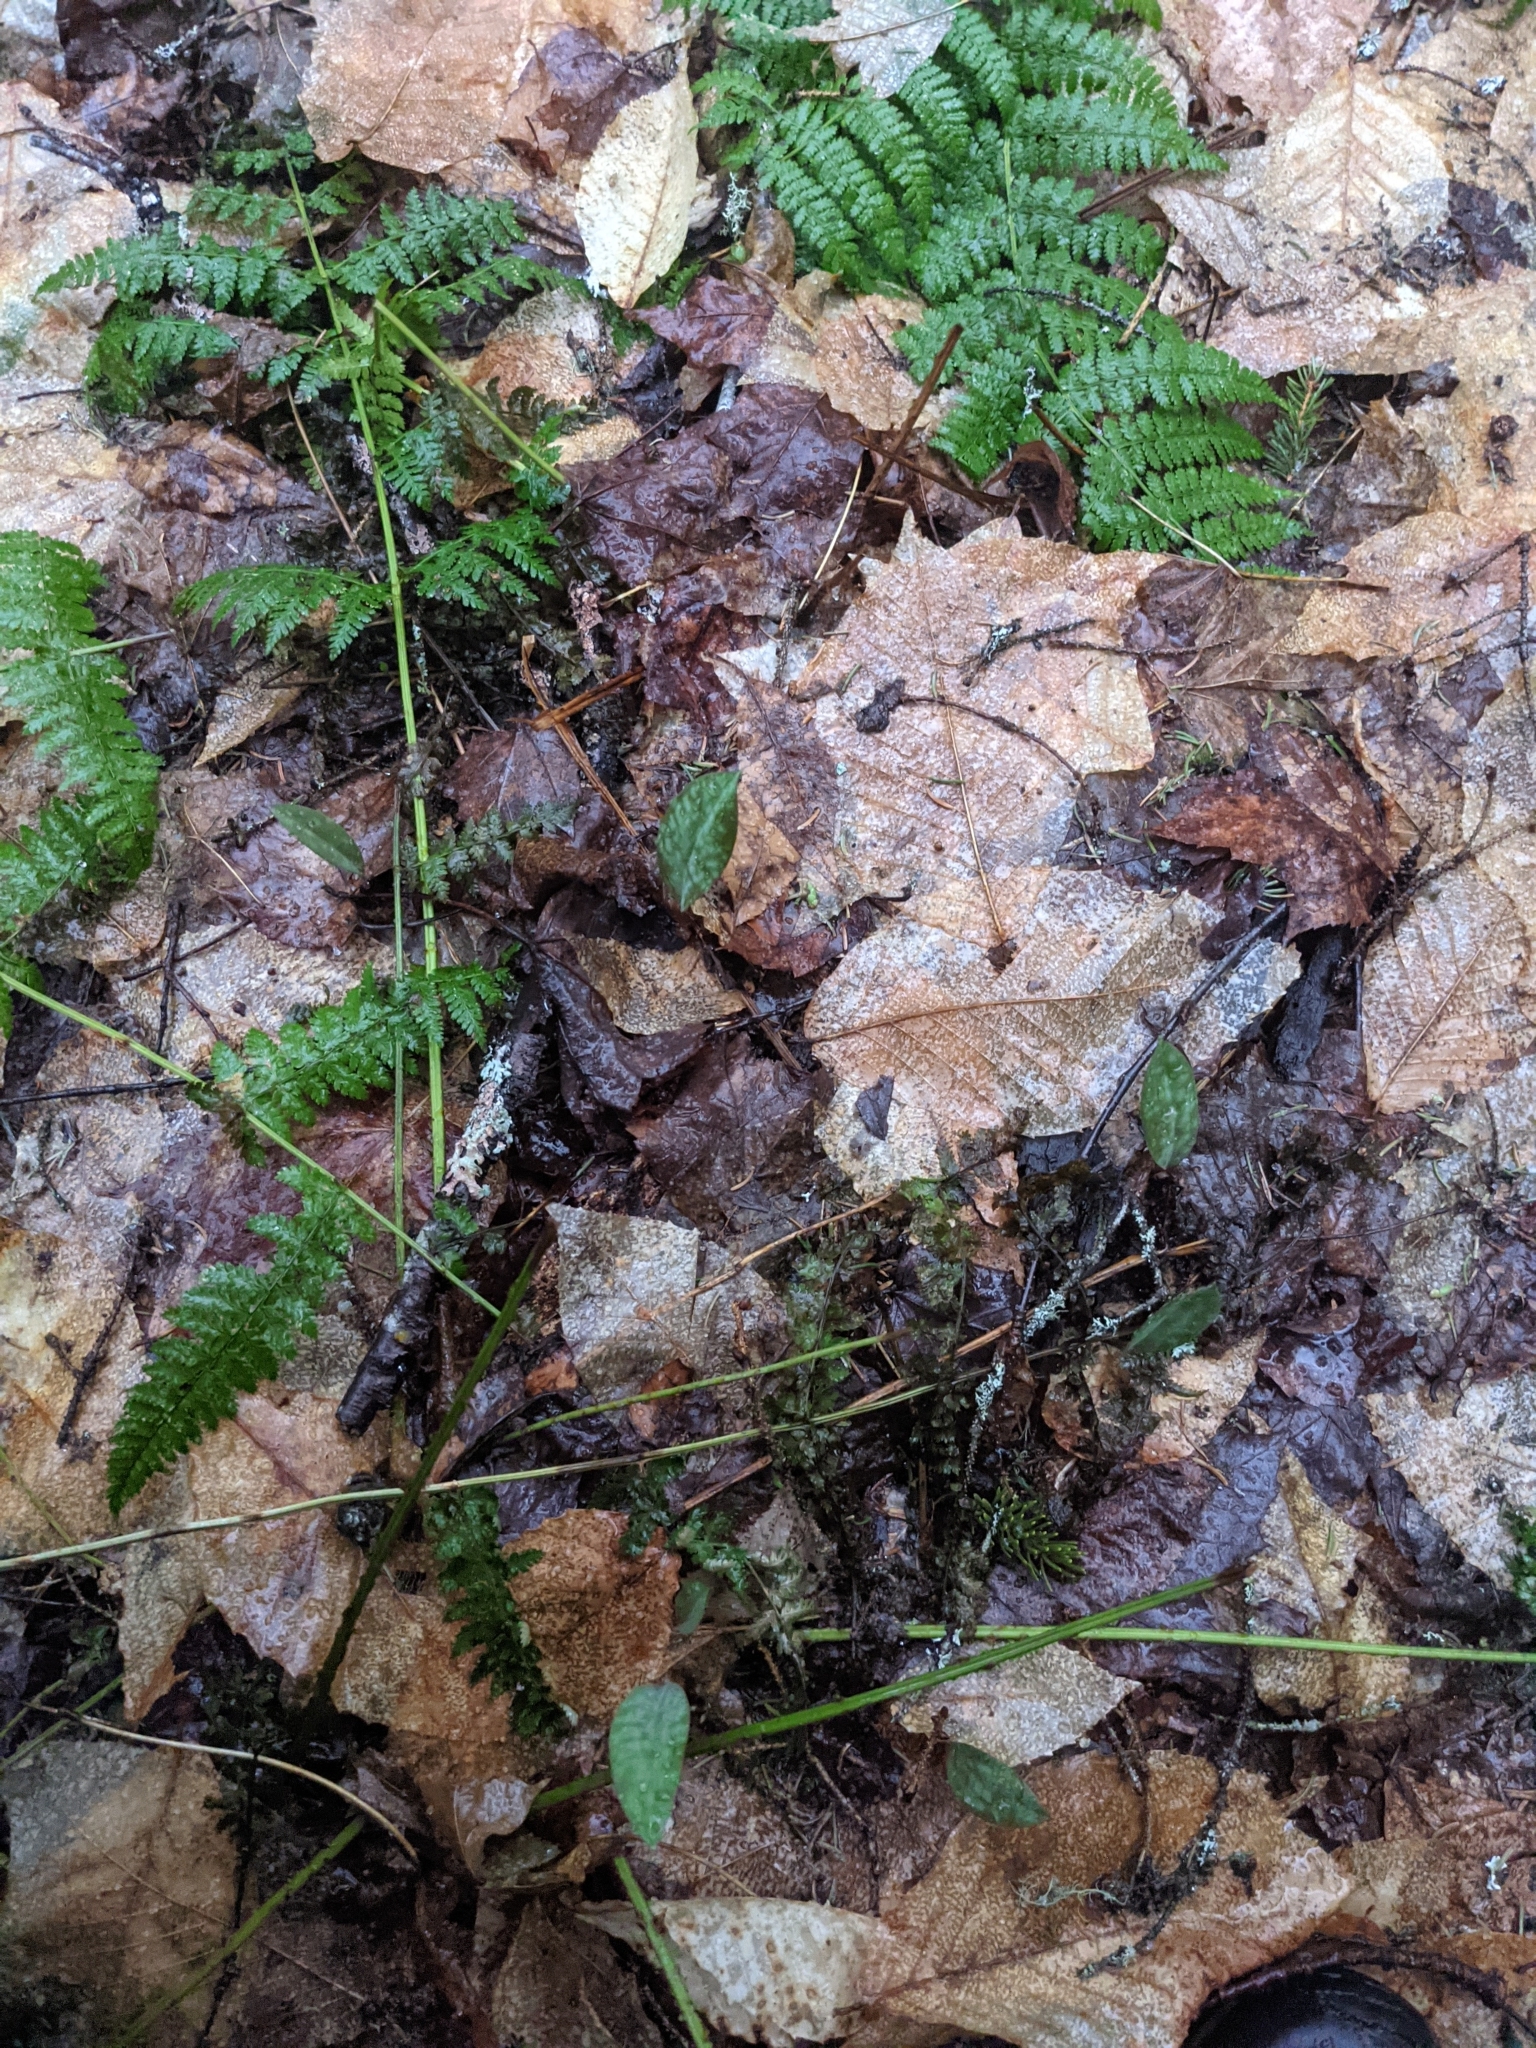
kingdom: Plantae
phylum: Tracheophyta
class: Liliopsida
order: Liliales
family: Liliaceae
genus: Erythronium
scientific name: Erythronium americanum
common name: Yellow adder's-tongue
